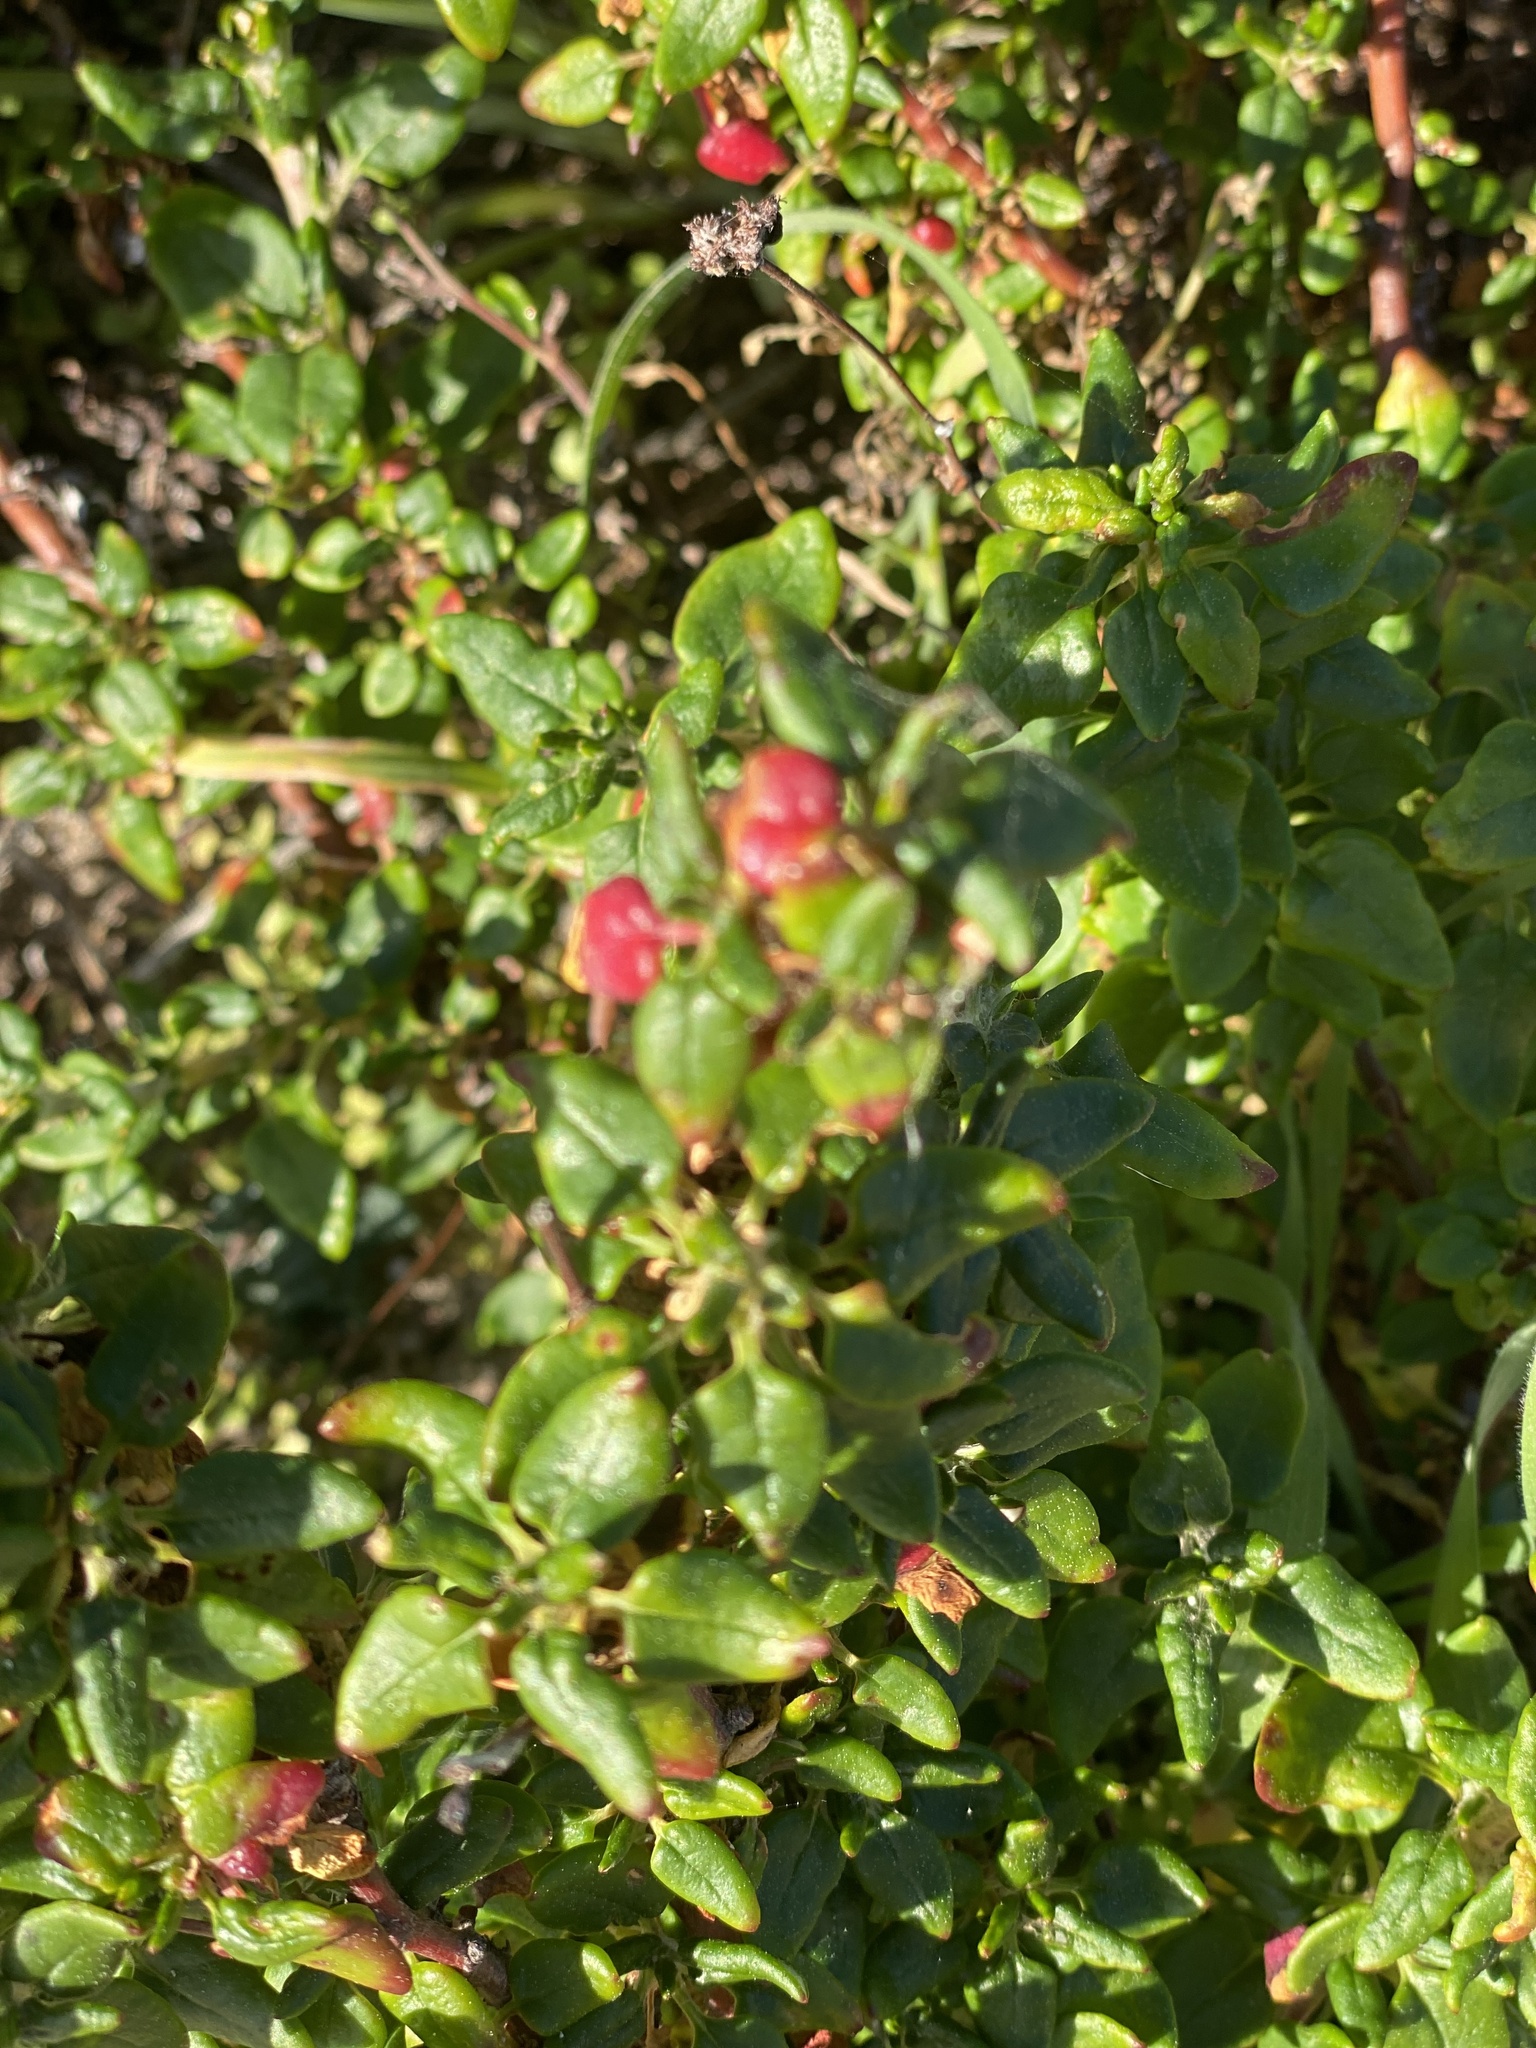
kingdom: Plantae
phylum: Tracheophyta
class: Magnoliopsida
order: Caryophyllales
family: Polygonaceae
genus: Eriogonum
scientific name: Eriogonum parvifolium
